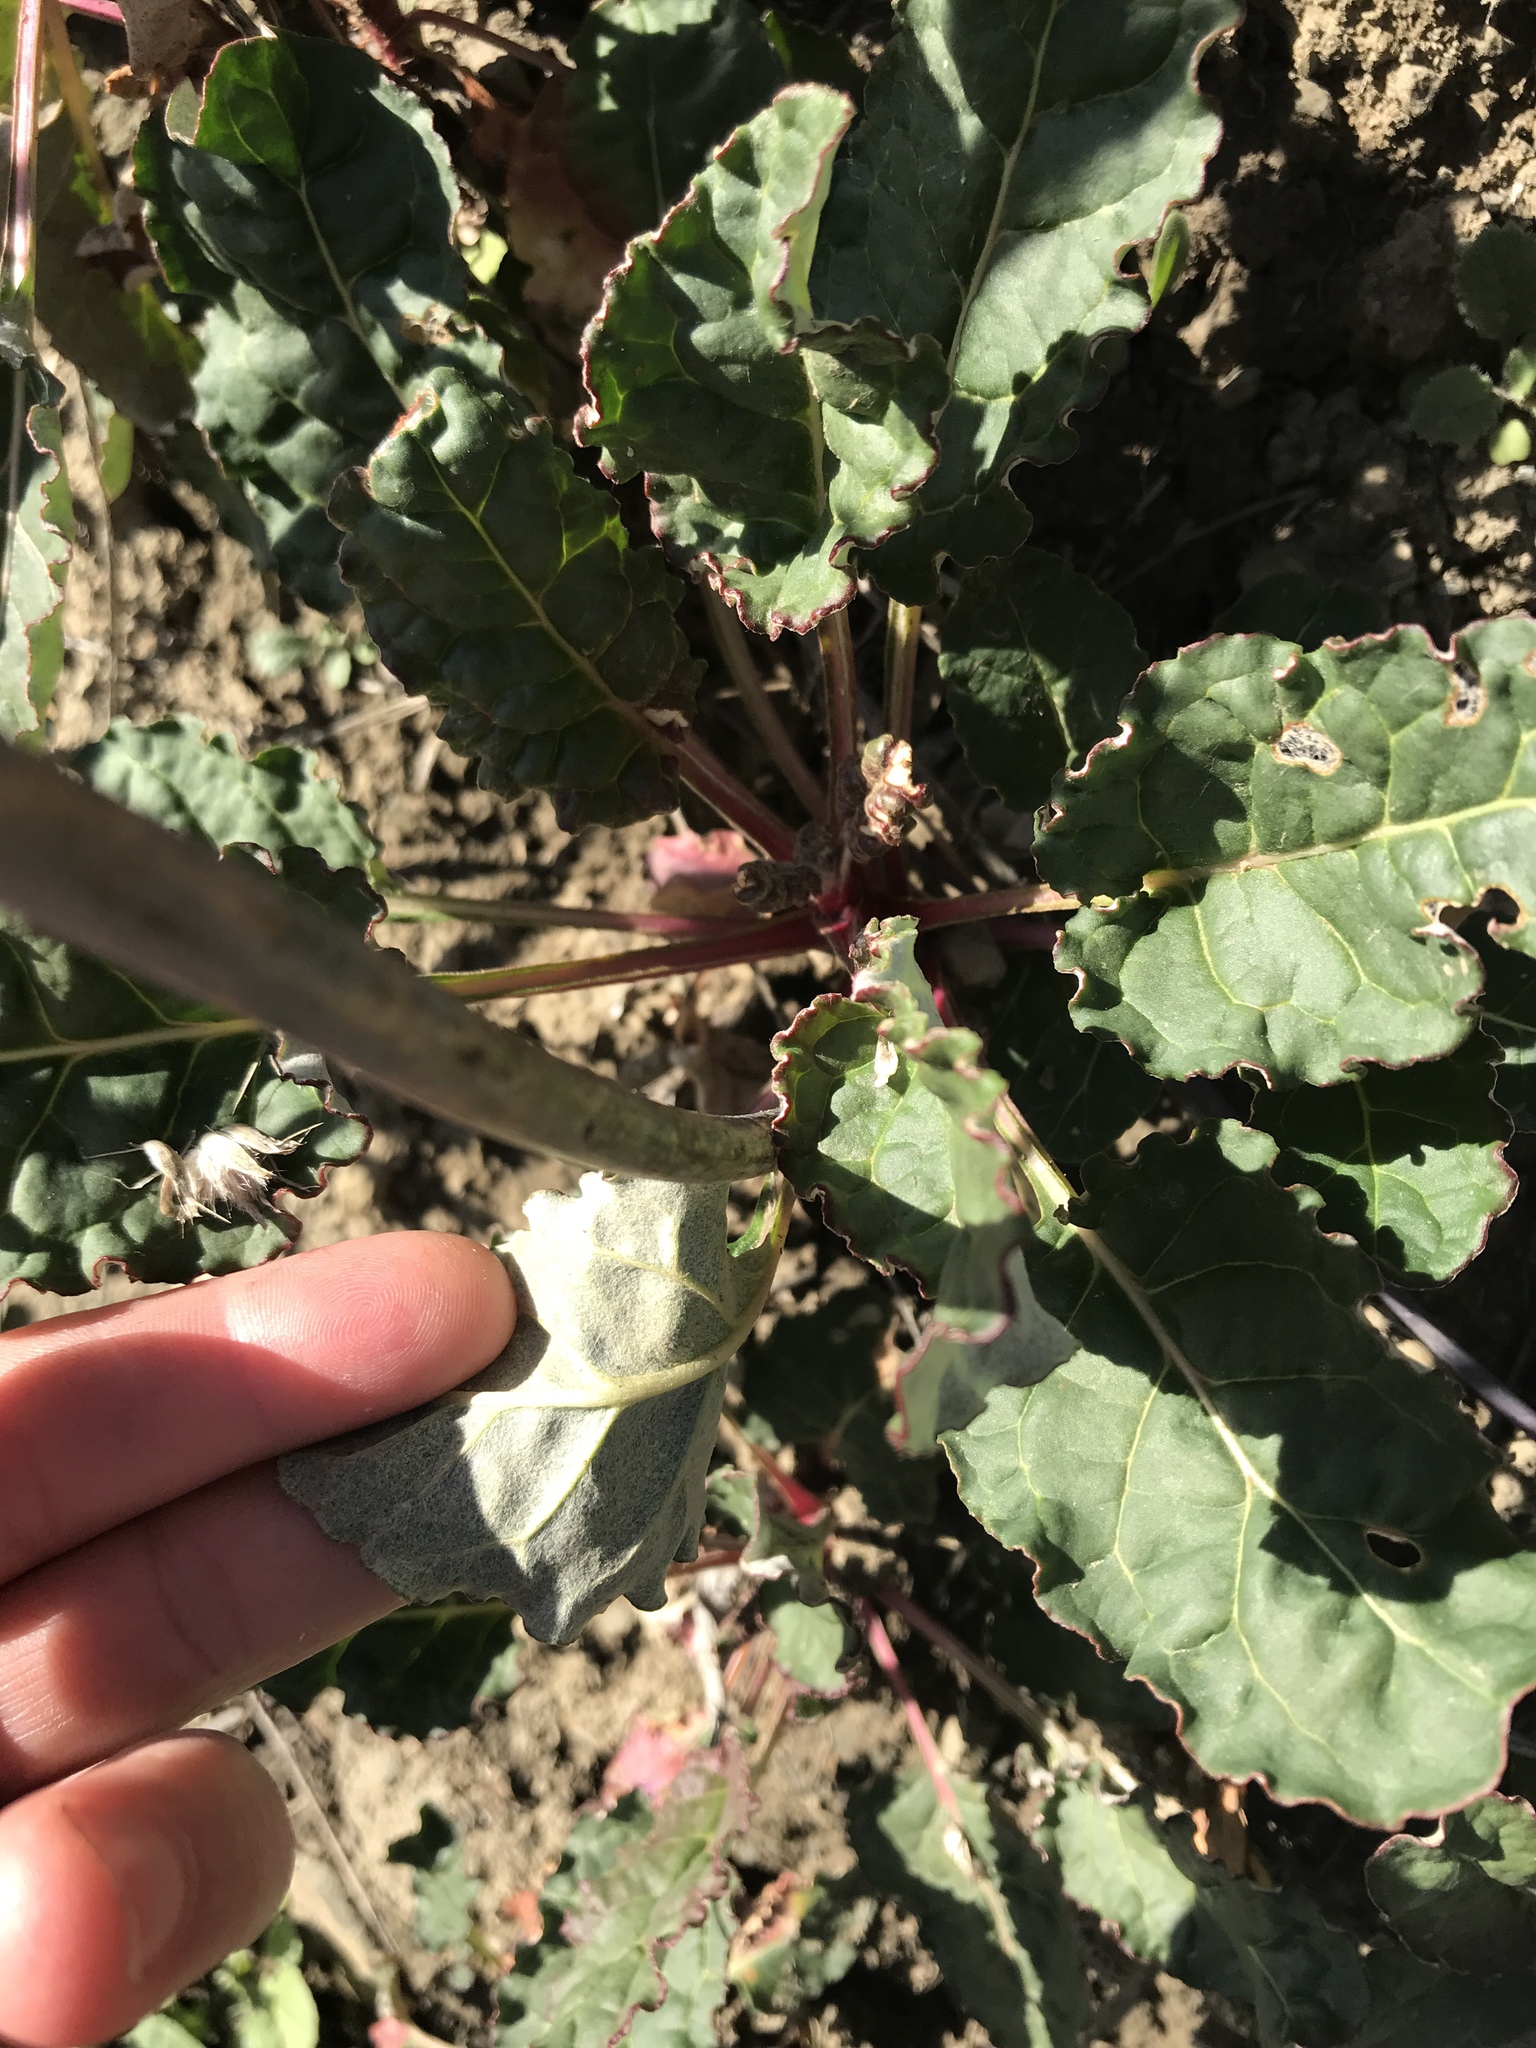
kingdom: Plantae
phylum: Tracheophyta
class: Magnoliopsida
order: Caryophyllales
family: Polygonaceae
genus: Eriogonum
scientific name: Eriogonum nudum
